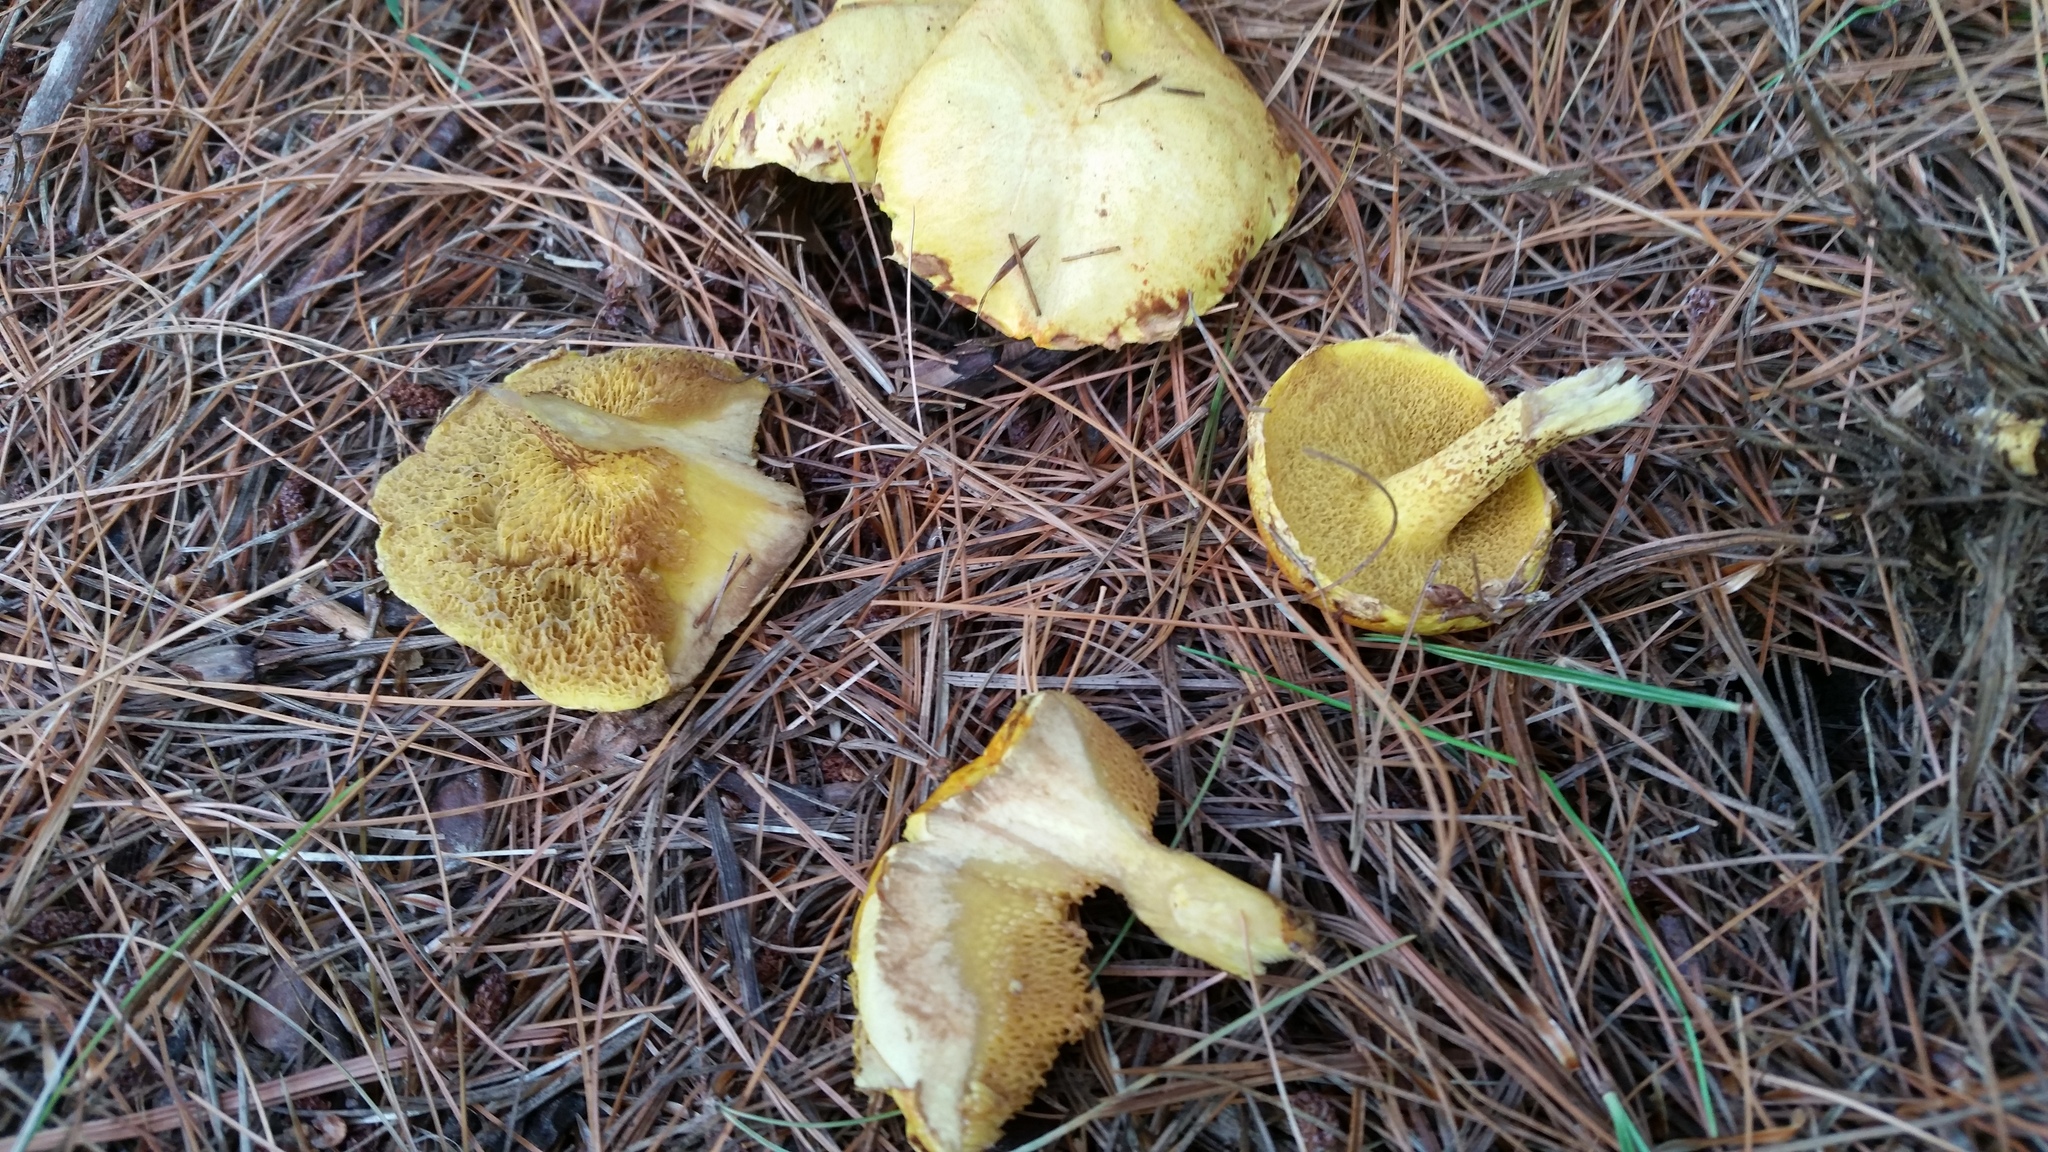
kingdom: Fungi
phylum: Basidiomycota
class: Agaricomycetes
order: Boletales
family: Suillaceae
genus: Suillus
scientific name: Suillus americanus
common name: Chicken fat mushroom
